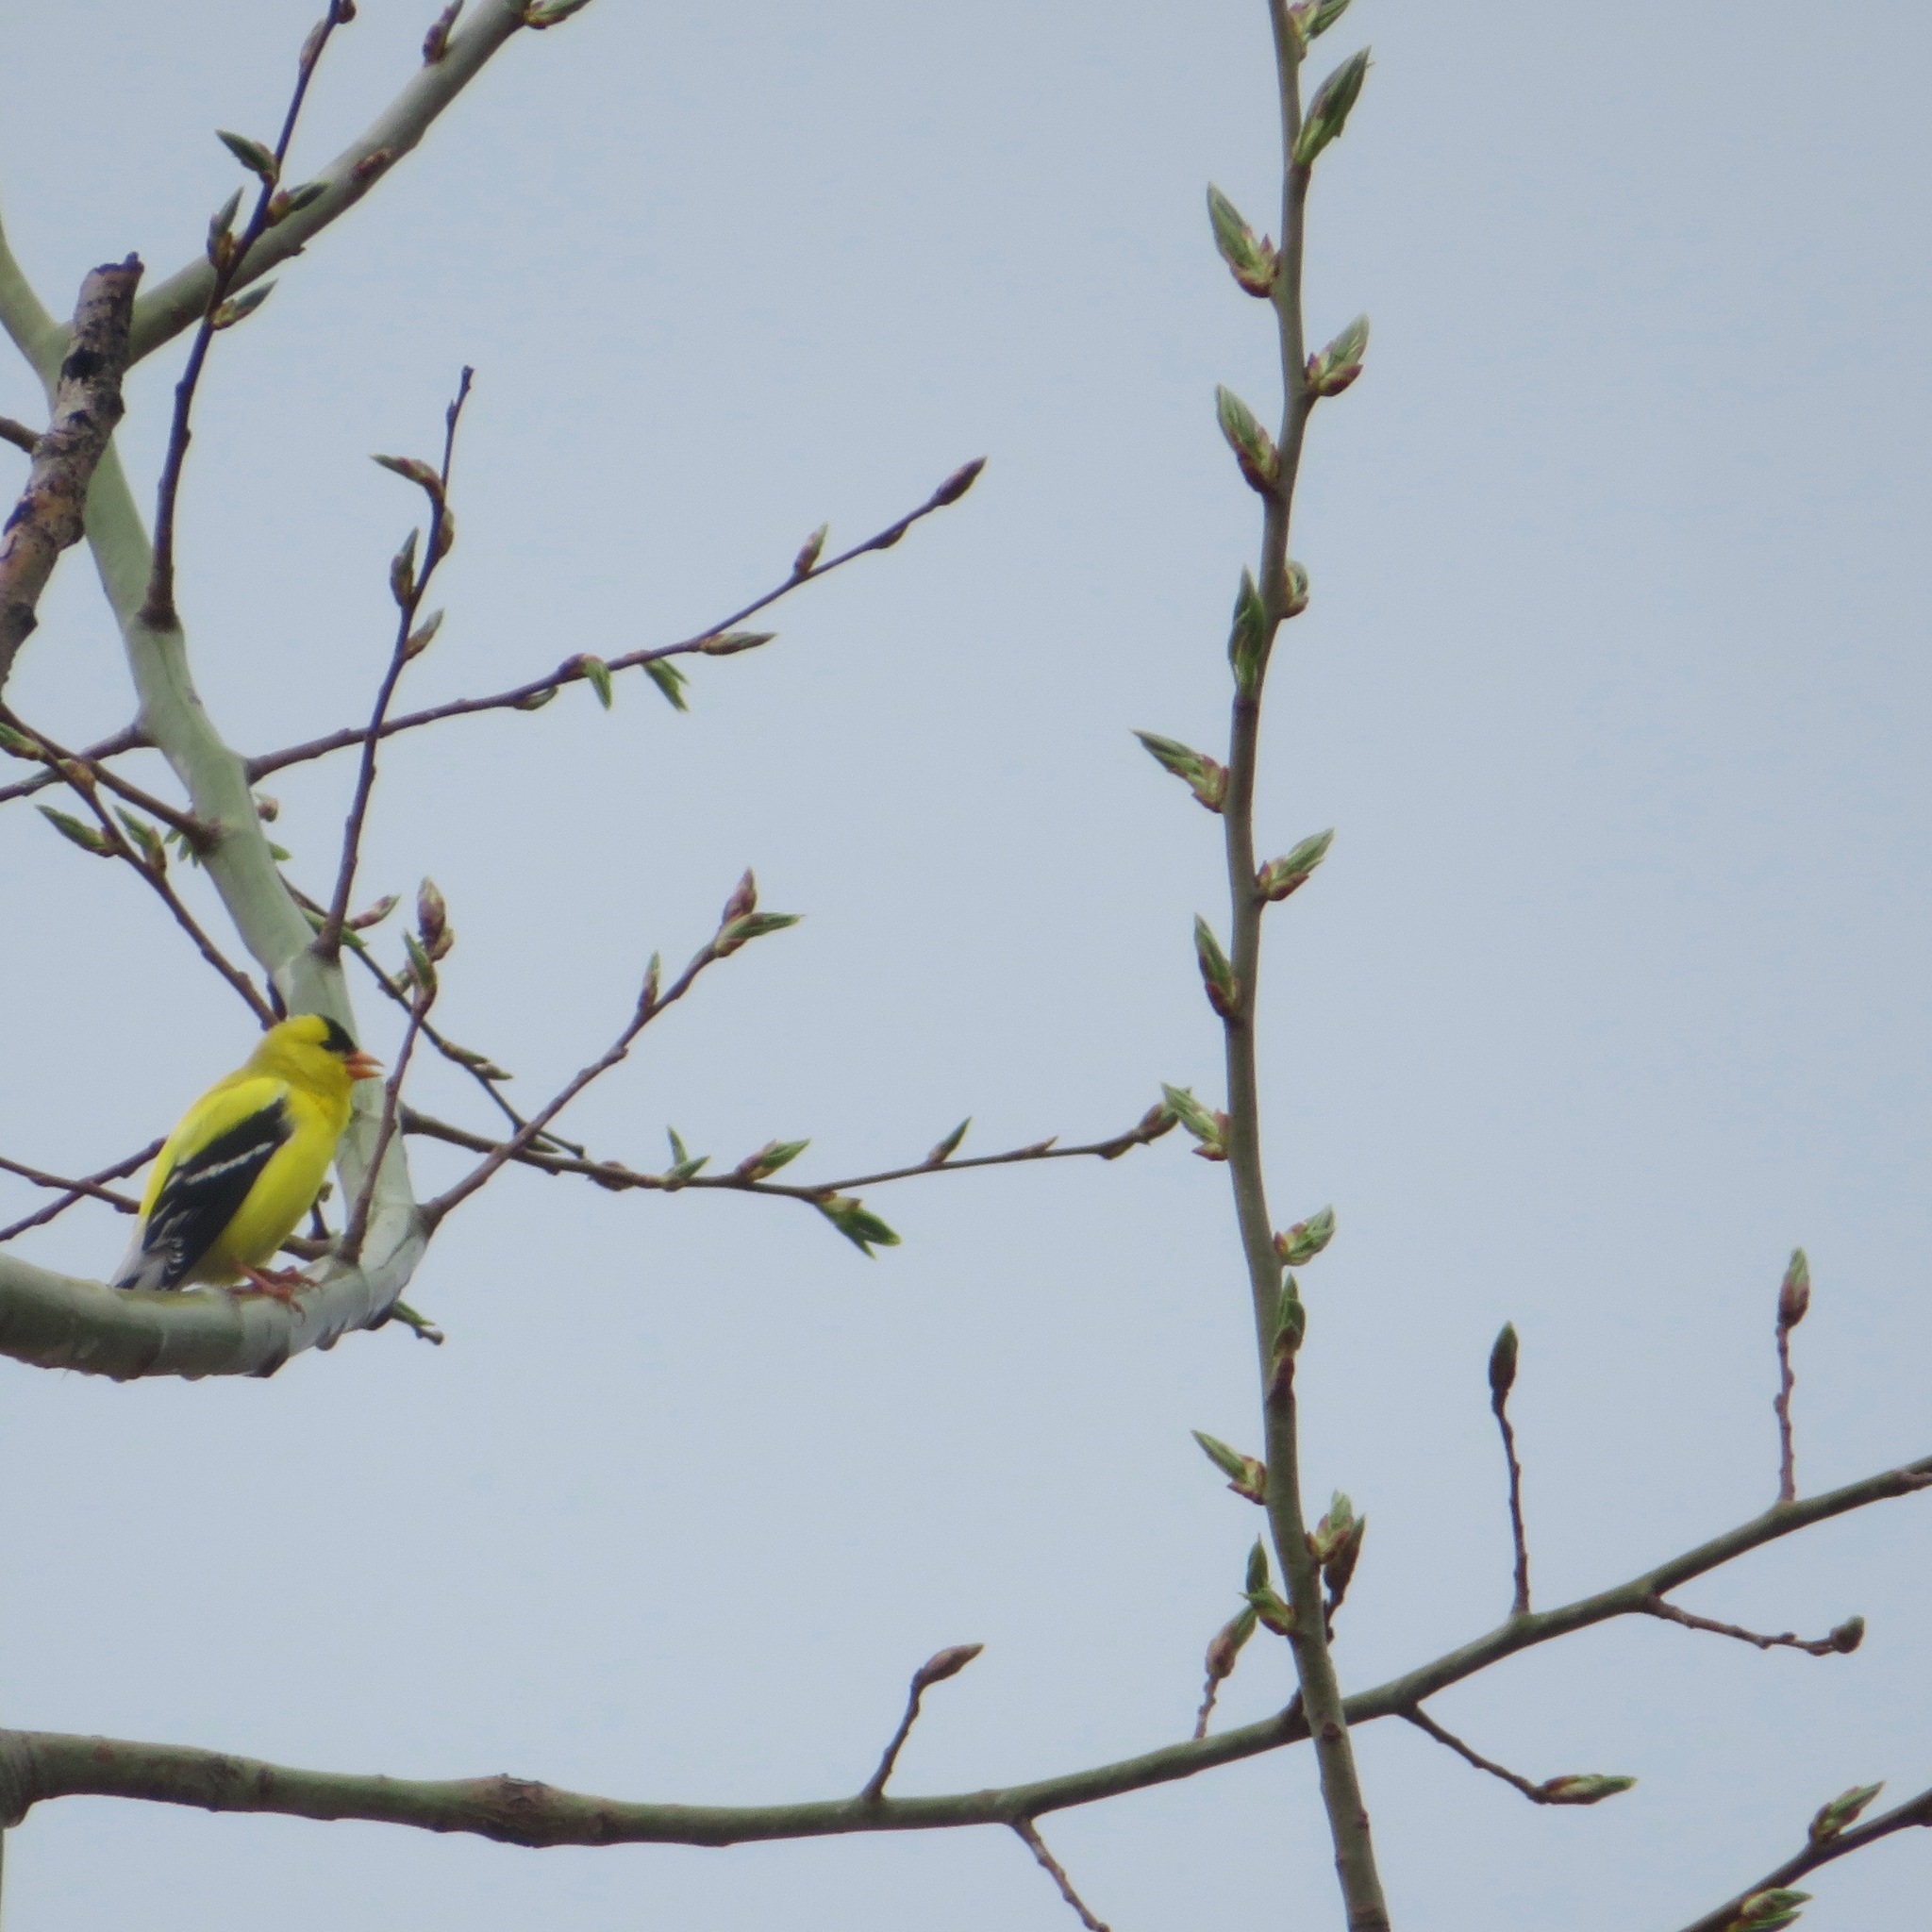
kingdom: Animalia
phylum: Chordata
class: Aves
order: Passeriformes
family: Fringillidae
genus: Spinus
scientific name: Spinus tristis
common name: American goldfinch
